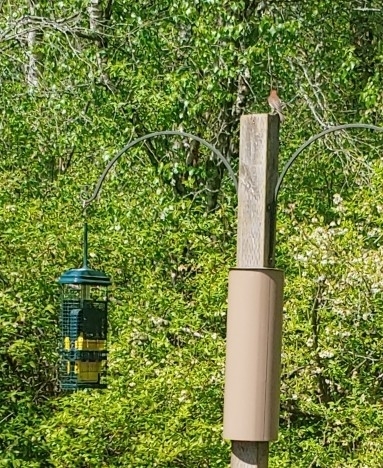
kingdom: Animalia
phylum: Chordata
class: Aves
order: Passeriformes
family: Fringillidae
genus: Haemorhous
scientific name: Haemorhous mexicanus
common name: House finch
